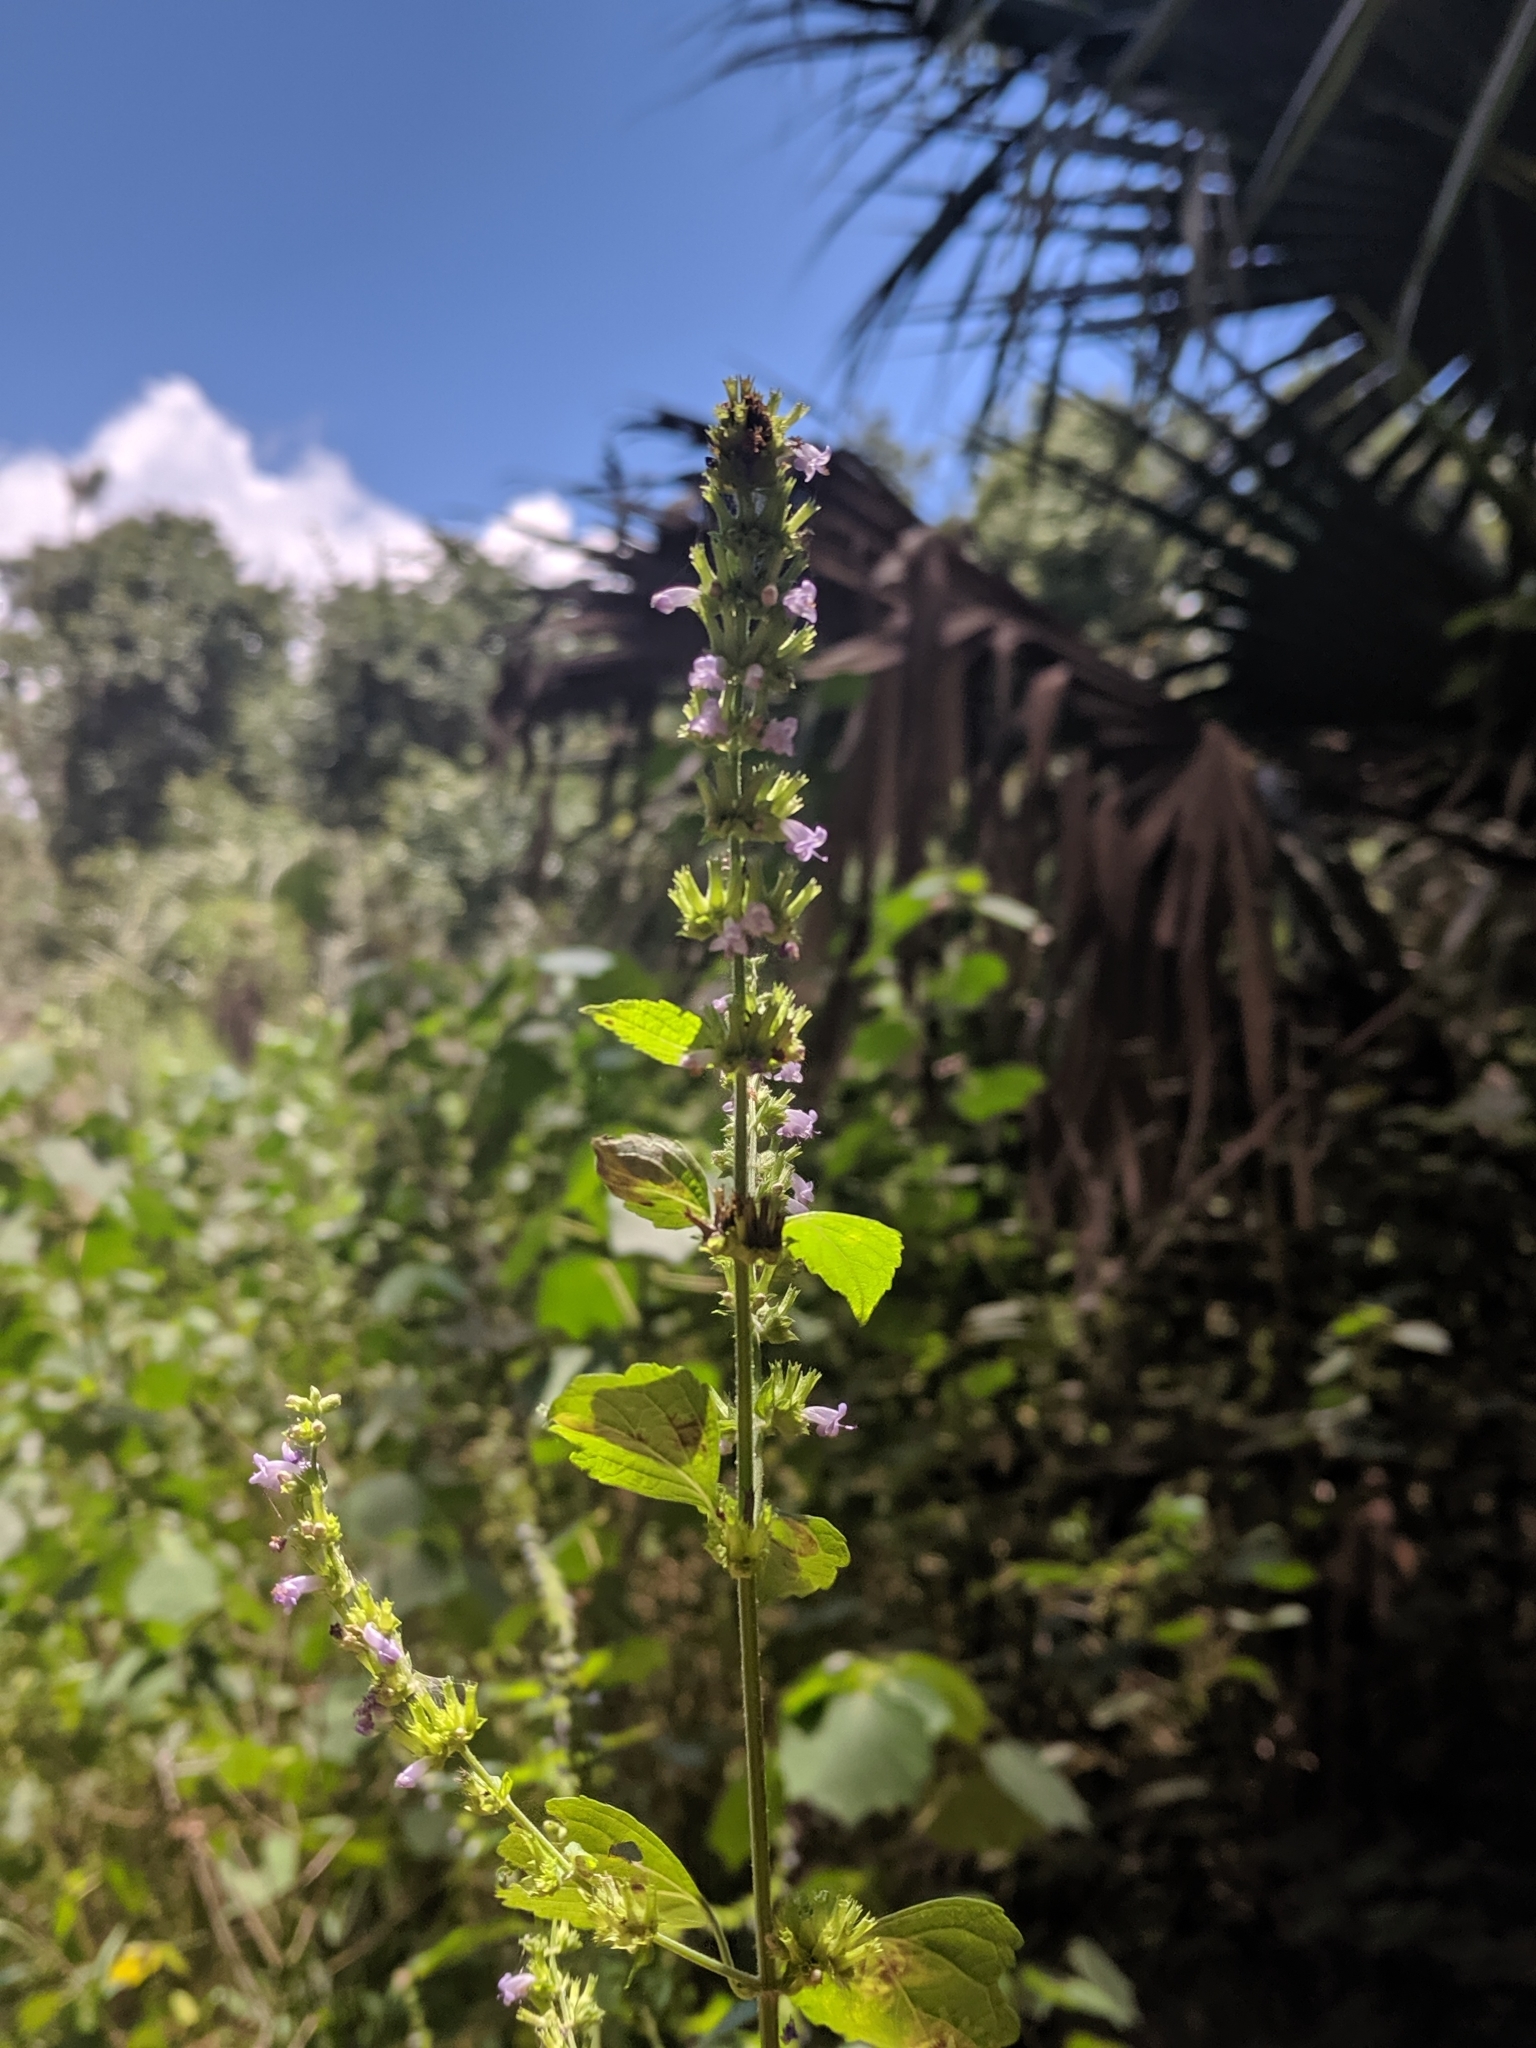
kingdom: Plantae
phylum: Tracheophyta
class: Magnoliopsida
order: Lamiales
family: Lamiaceae
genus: Cantinoa
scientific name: Cantinoa mutabilis
